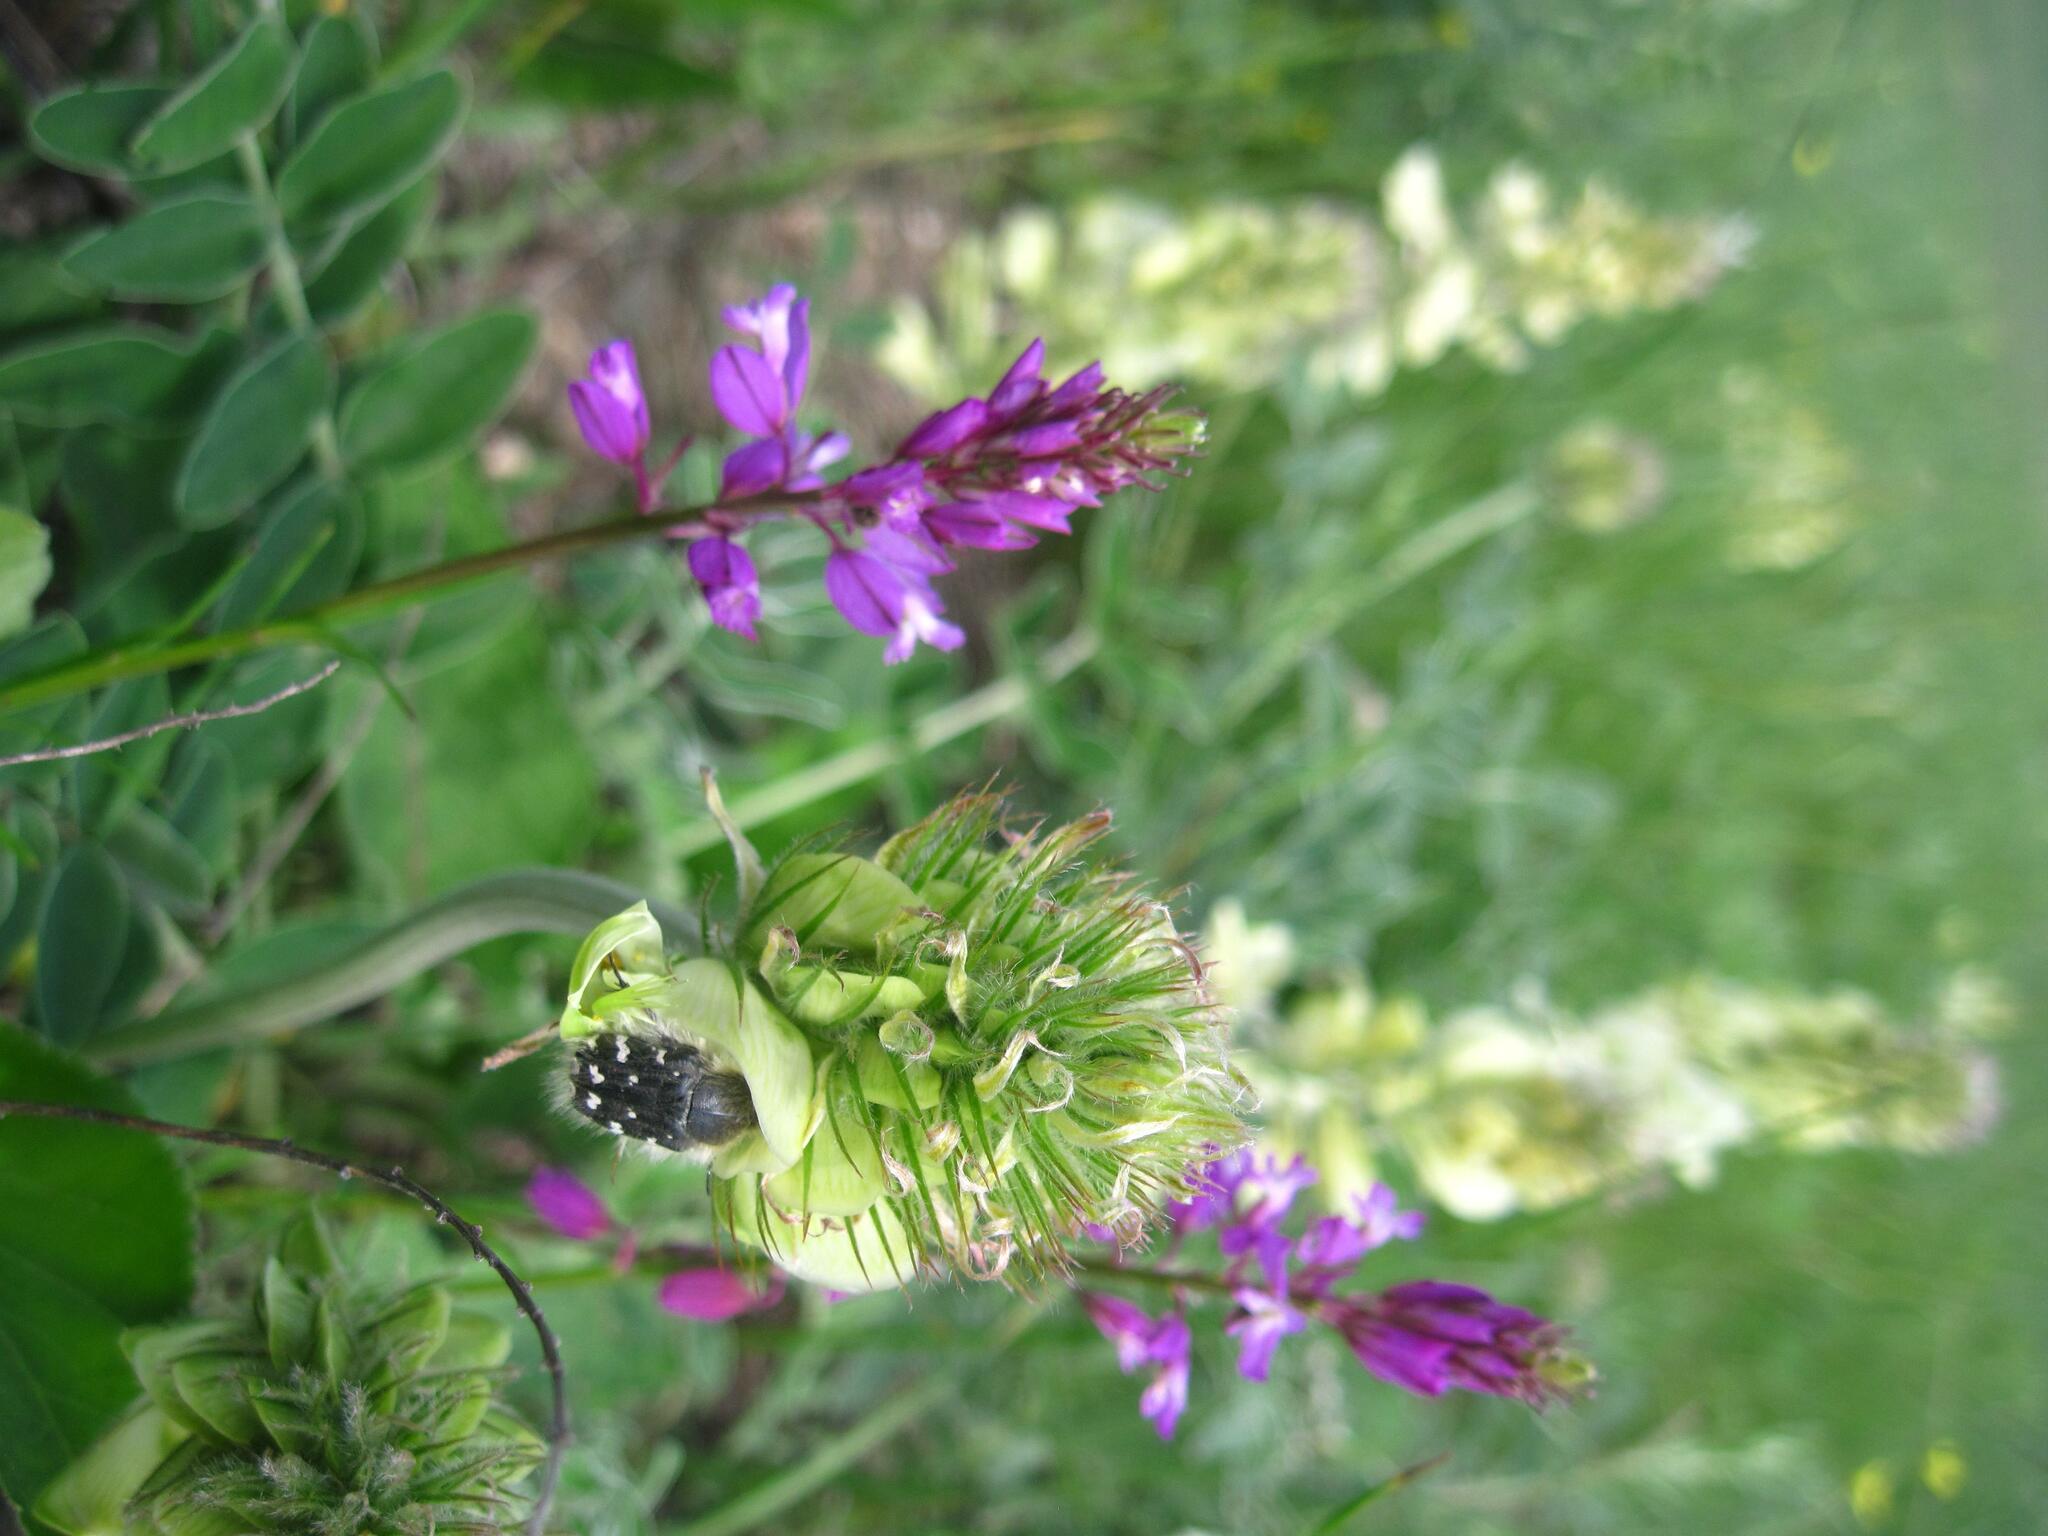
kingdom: Plantae
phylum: Tracheophyta
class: Magnoliopsida
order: Fabales
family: Polygalaceae
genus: Polygala
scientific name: Polygala nicaeensis
